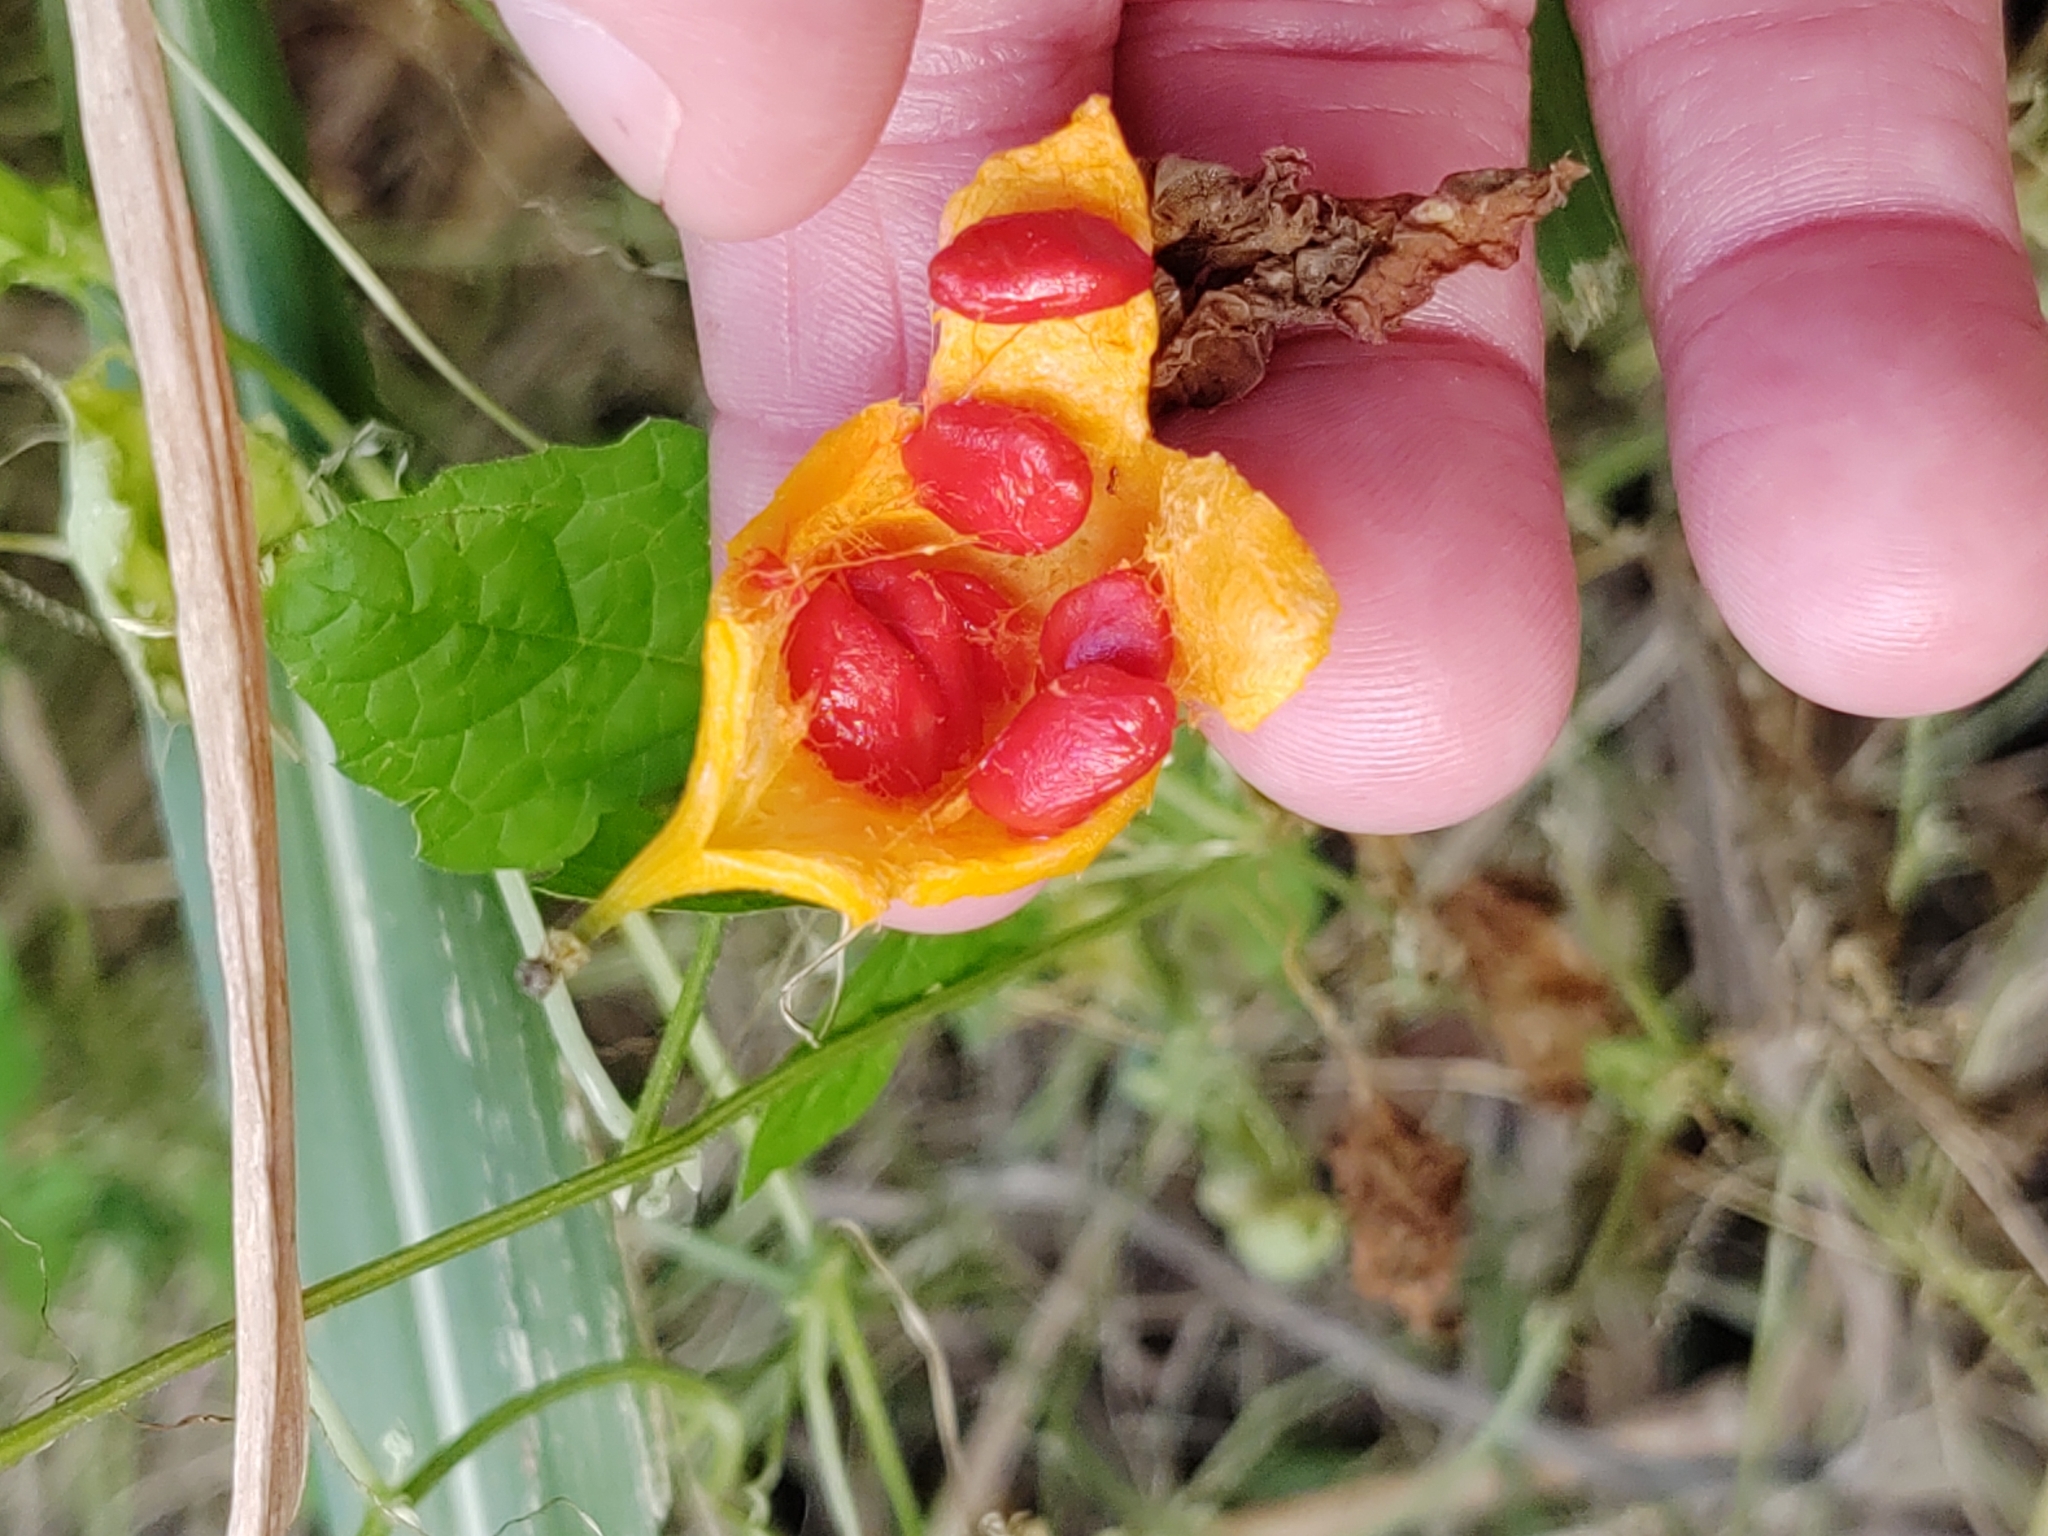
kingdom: Plantae
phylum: Tracheophyta
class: Magnoliopsida
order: Cucurbitales
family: Cucurbitaceae
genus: Momordica
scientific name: Momordica charantia
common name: Balsampear
